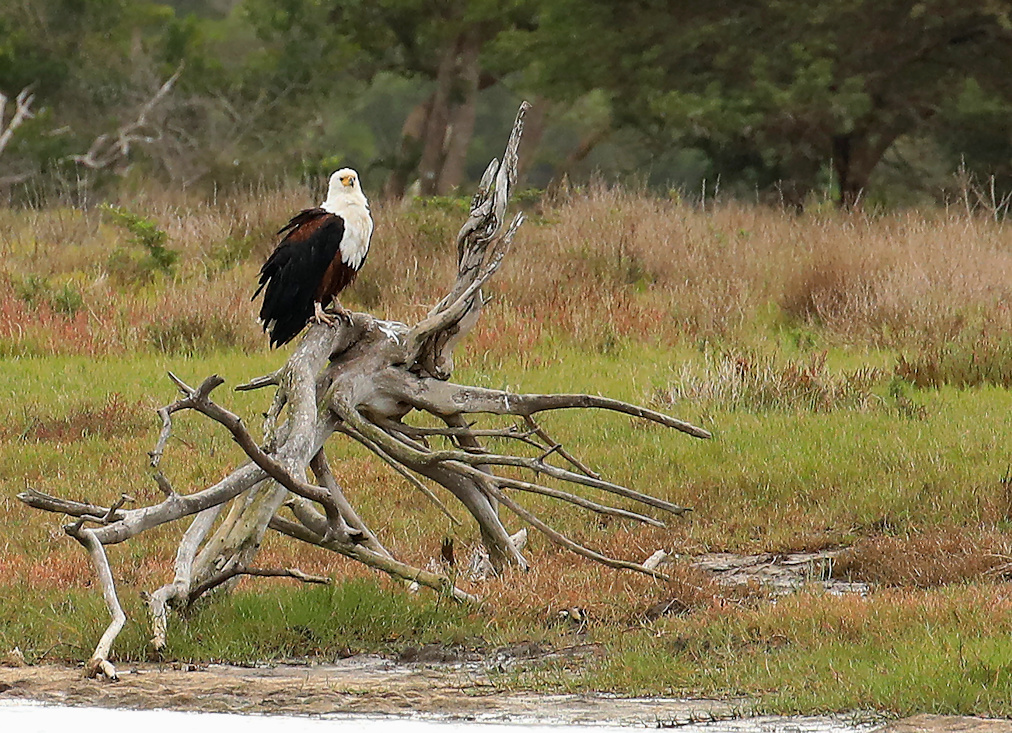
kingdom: Animalia
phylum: Chordata
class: Aves
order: Accipitriformes
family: Accipitridae
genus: Haliaeetus
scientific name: Haliaeetus vocifer
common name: African fish eagle
